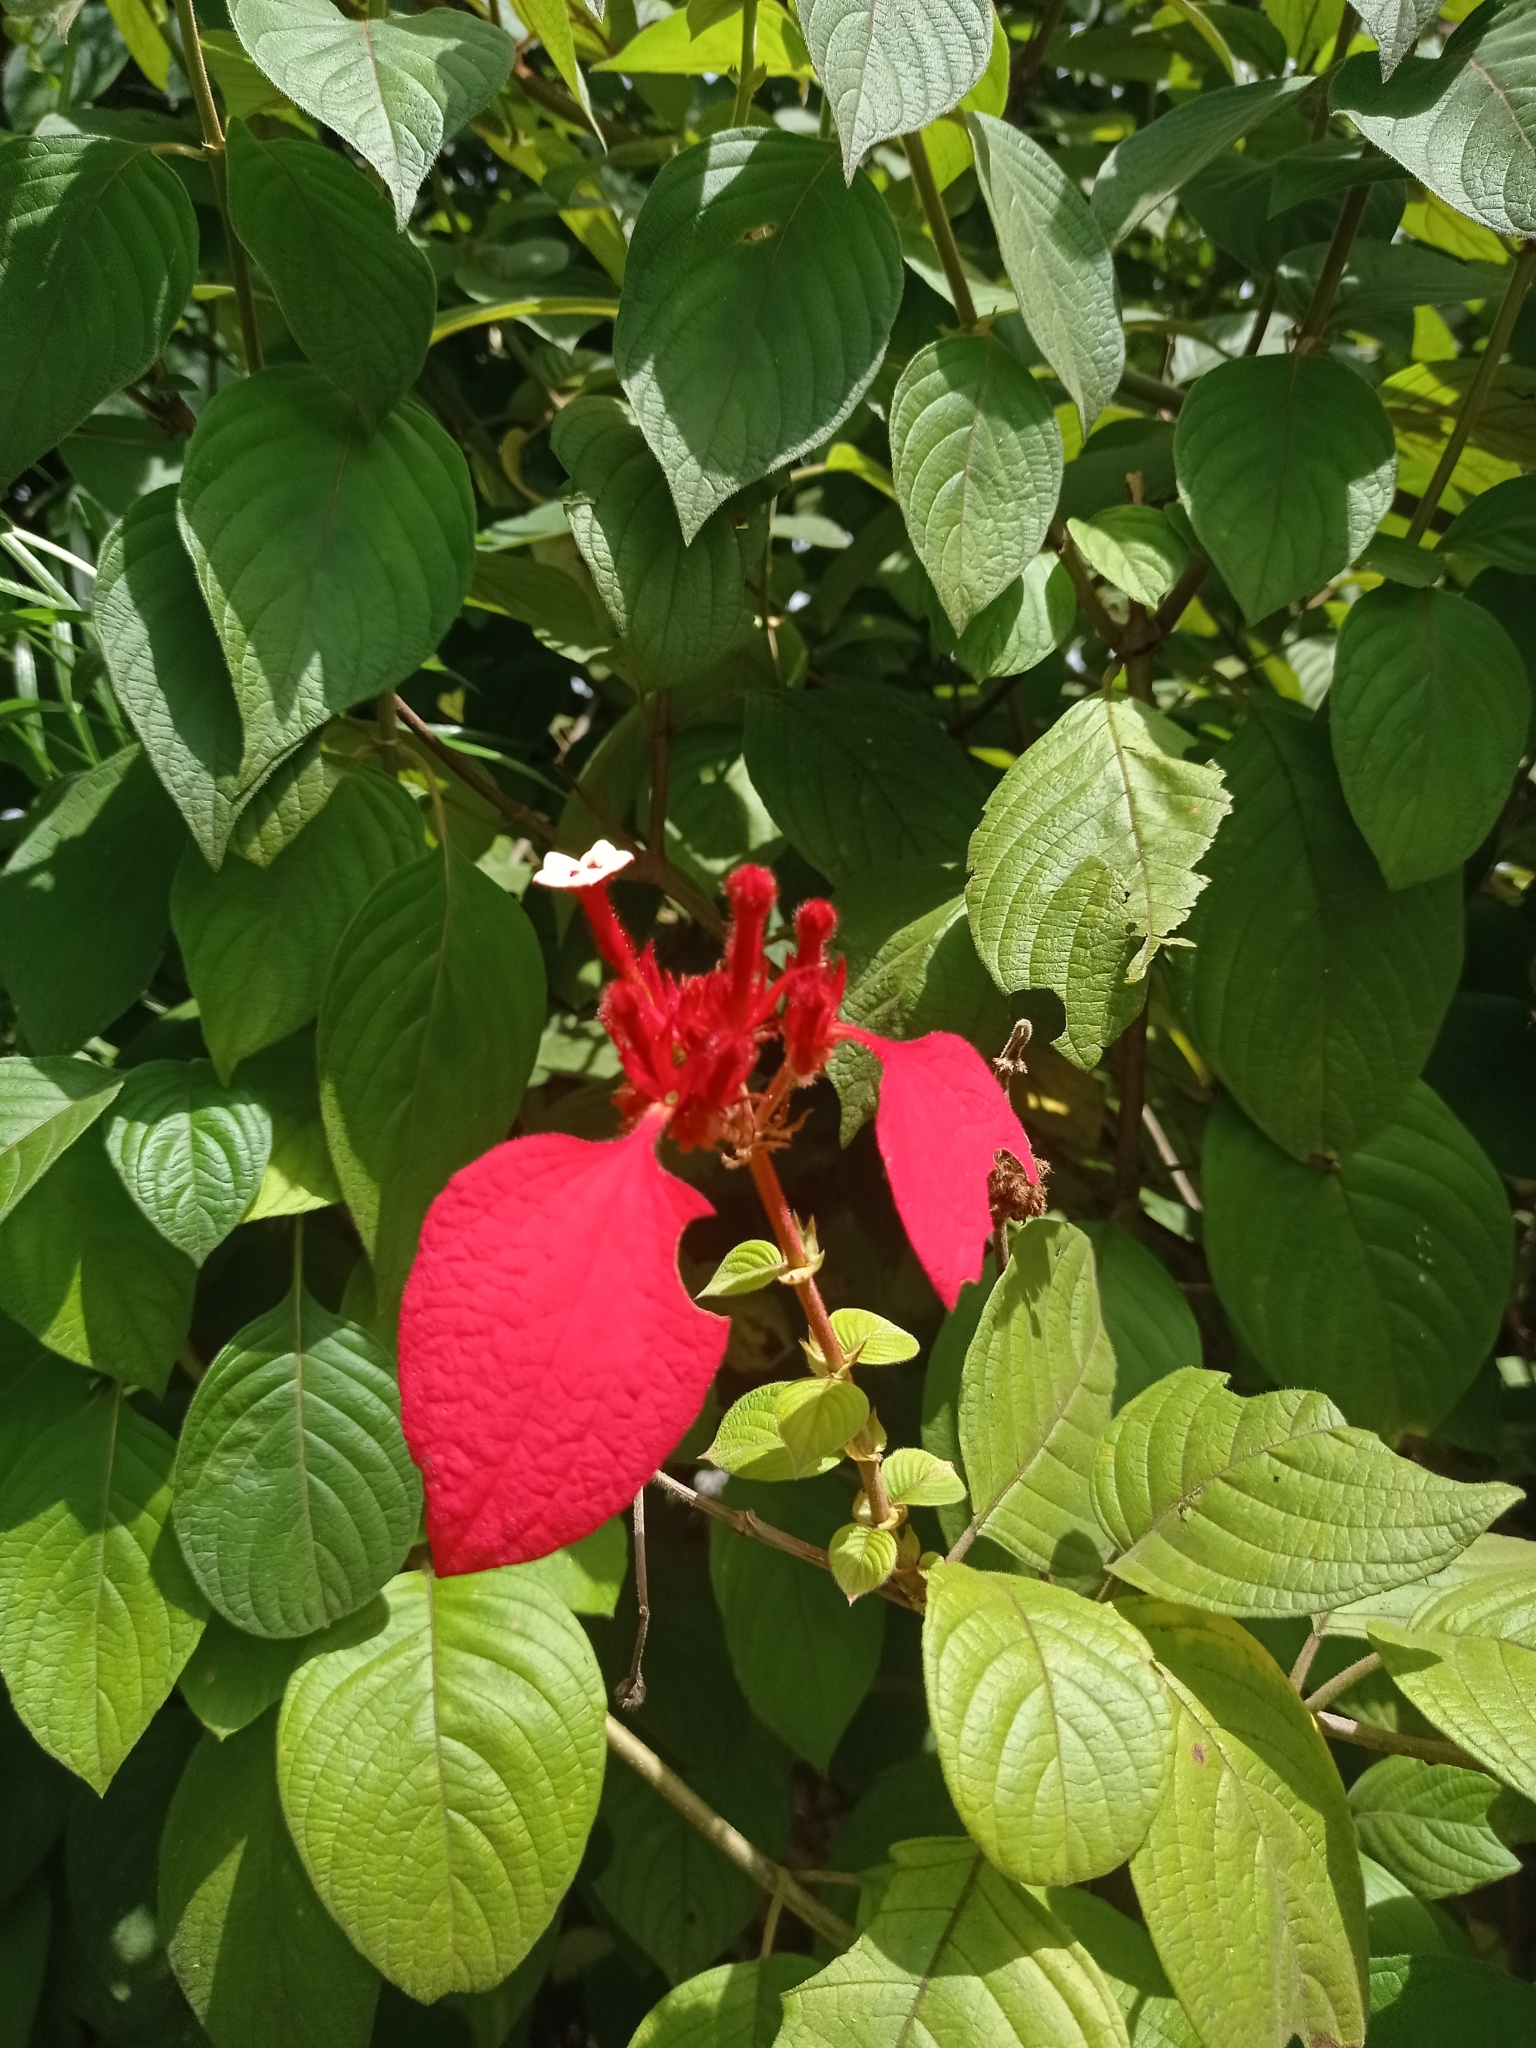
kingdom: Plantae
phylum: Tracheophyta
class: Magnoliopsida
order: Gentianales
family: Rubiaceae
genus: Mussaenda
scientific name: Mussaenda erythrophylla
